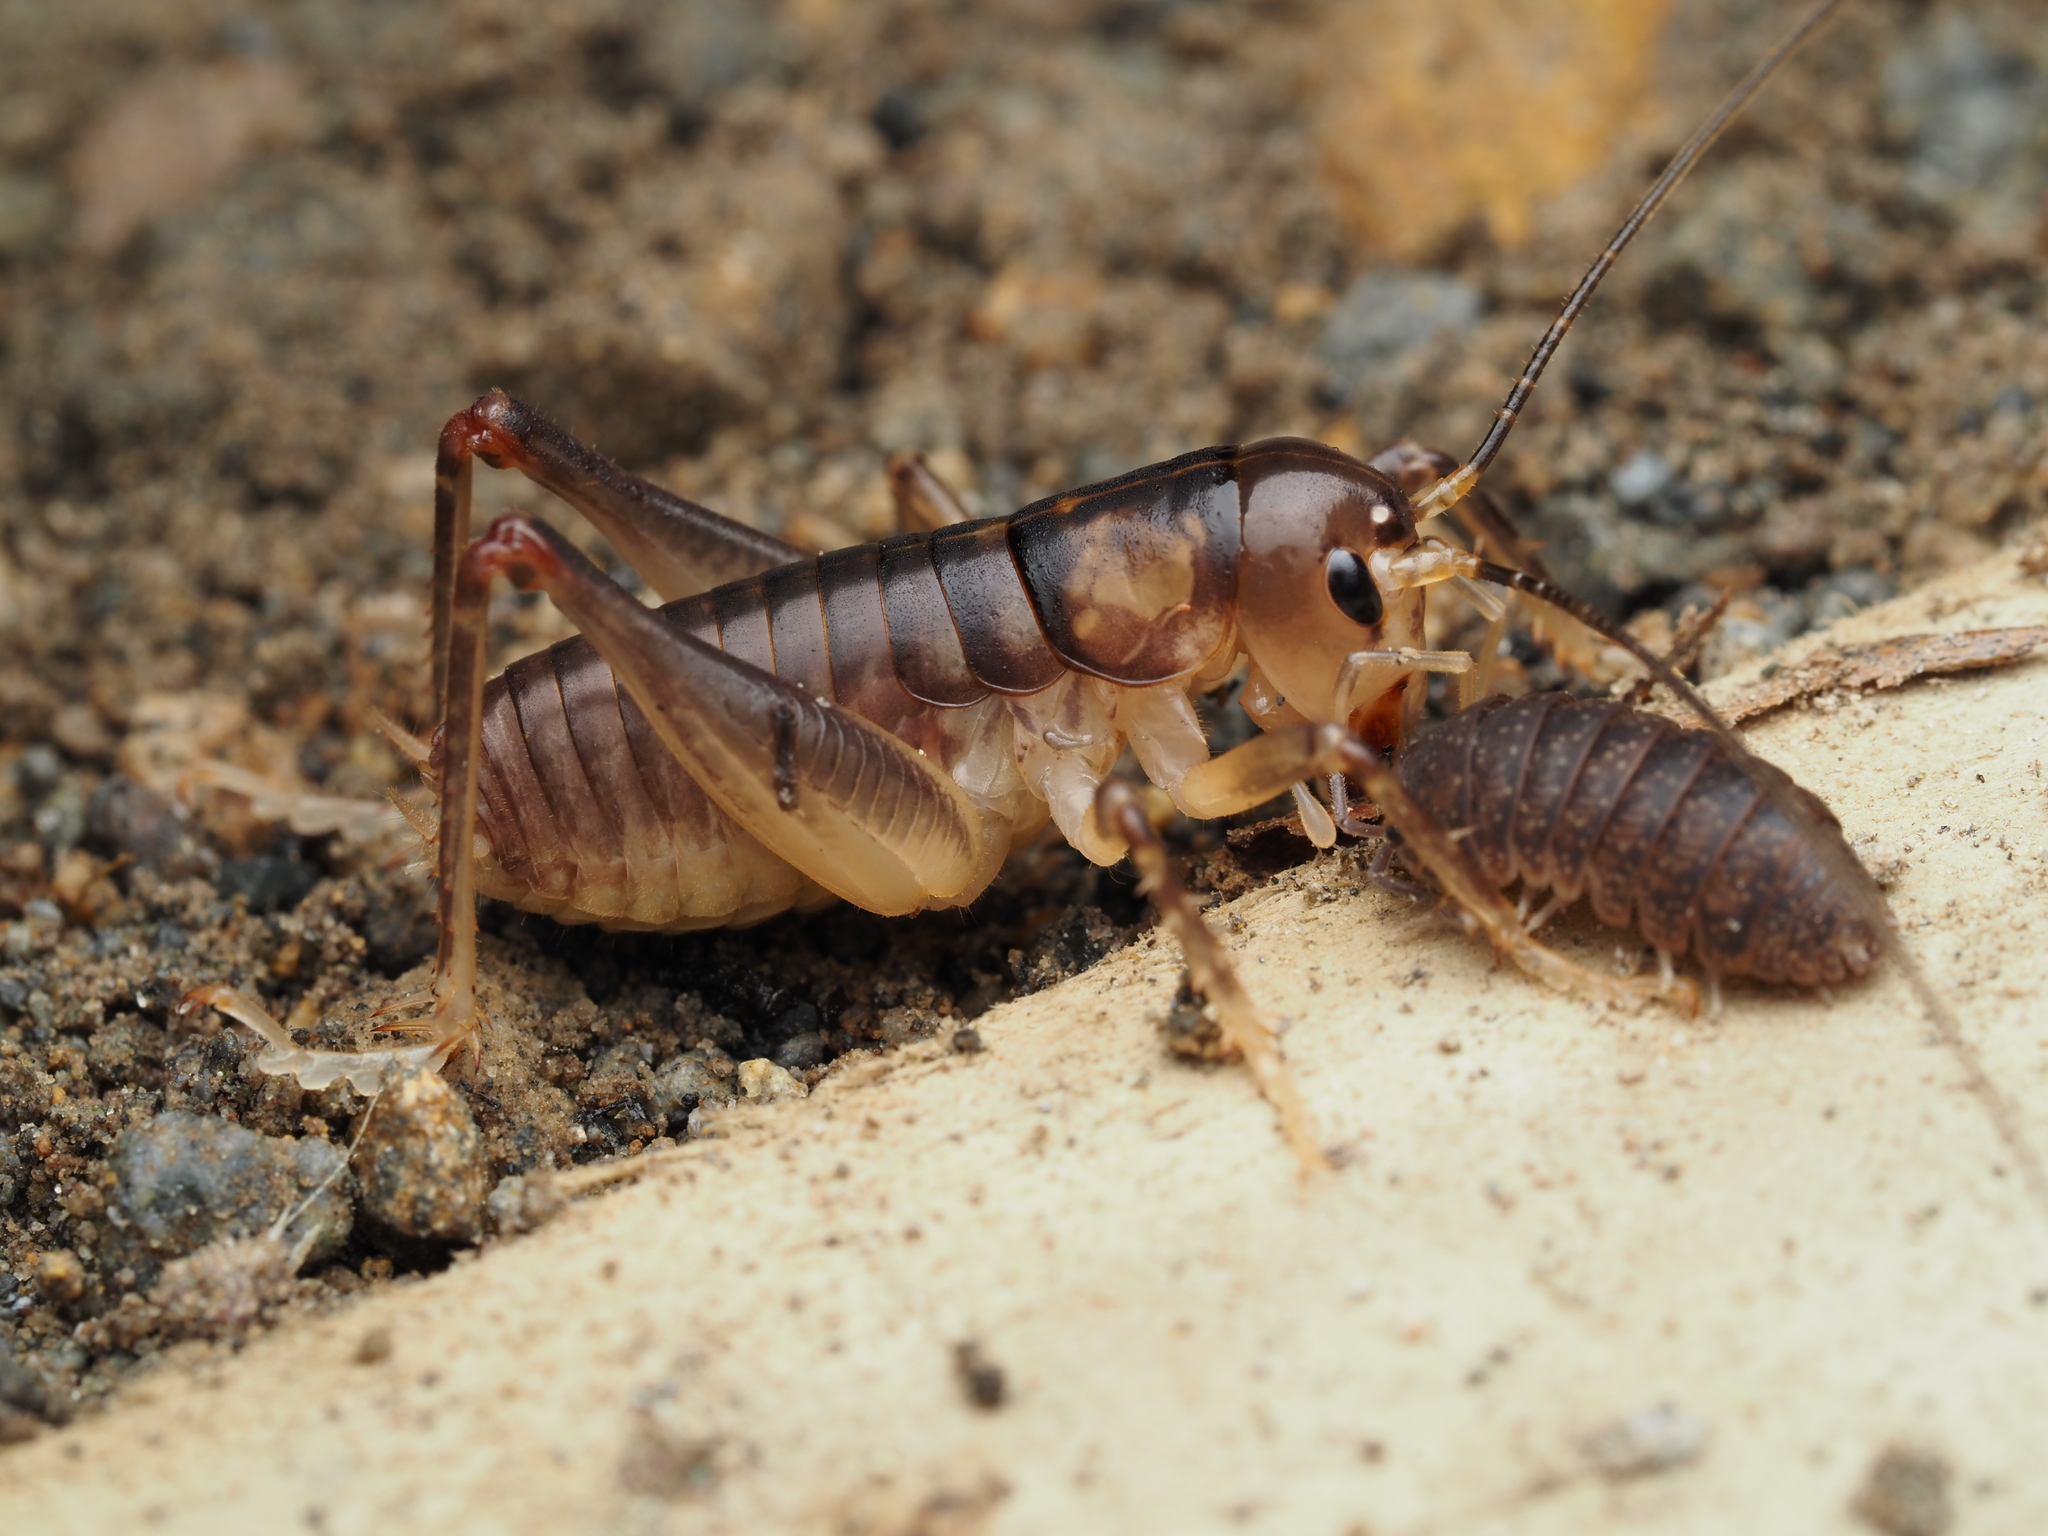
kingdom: Animalia
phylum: Arthropoda
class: Insecta
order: Orthoptera
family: Anostostomatidae
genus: Hemiandrus
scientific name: Hemiandrus pallitarsis
